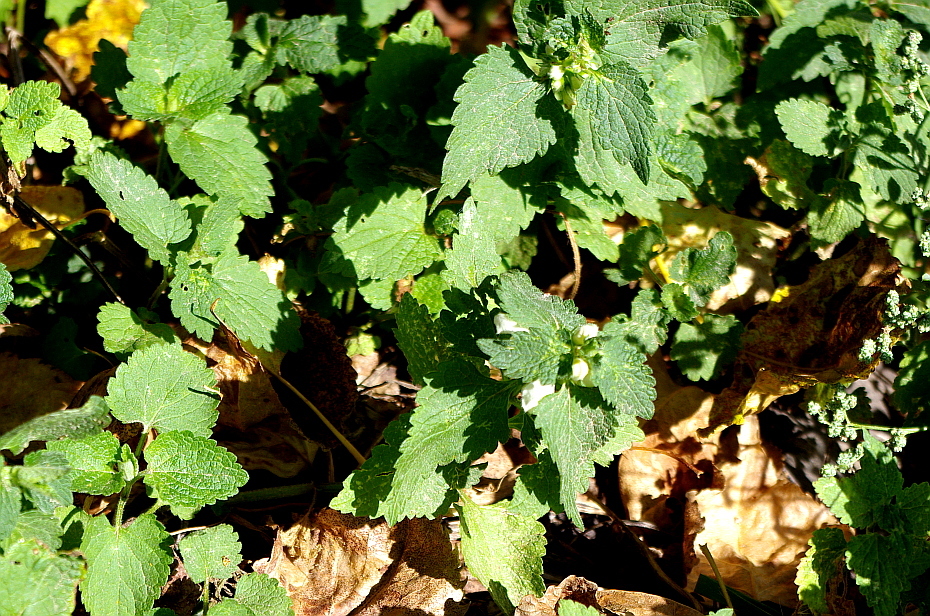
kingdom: Plantae
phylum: Tracheophyta
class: Magnoliopsida
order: Lamiales
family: Lamiaceae
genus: Lamium
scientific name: Lamium album
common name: White dead-nettle
